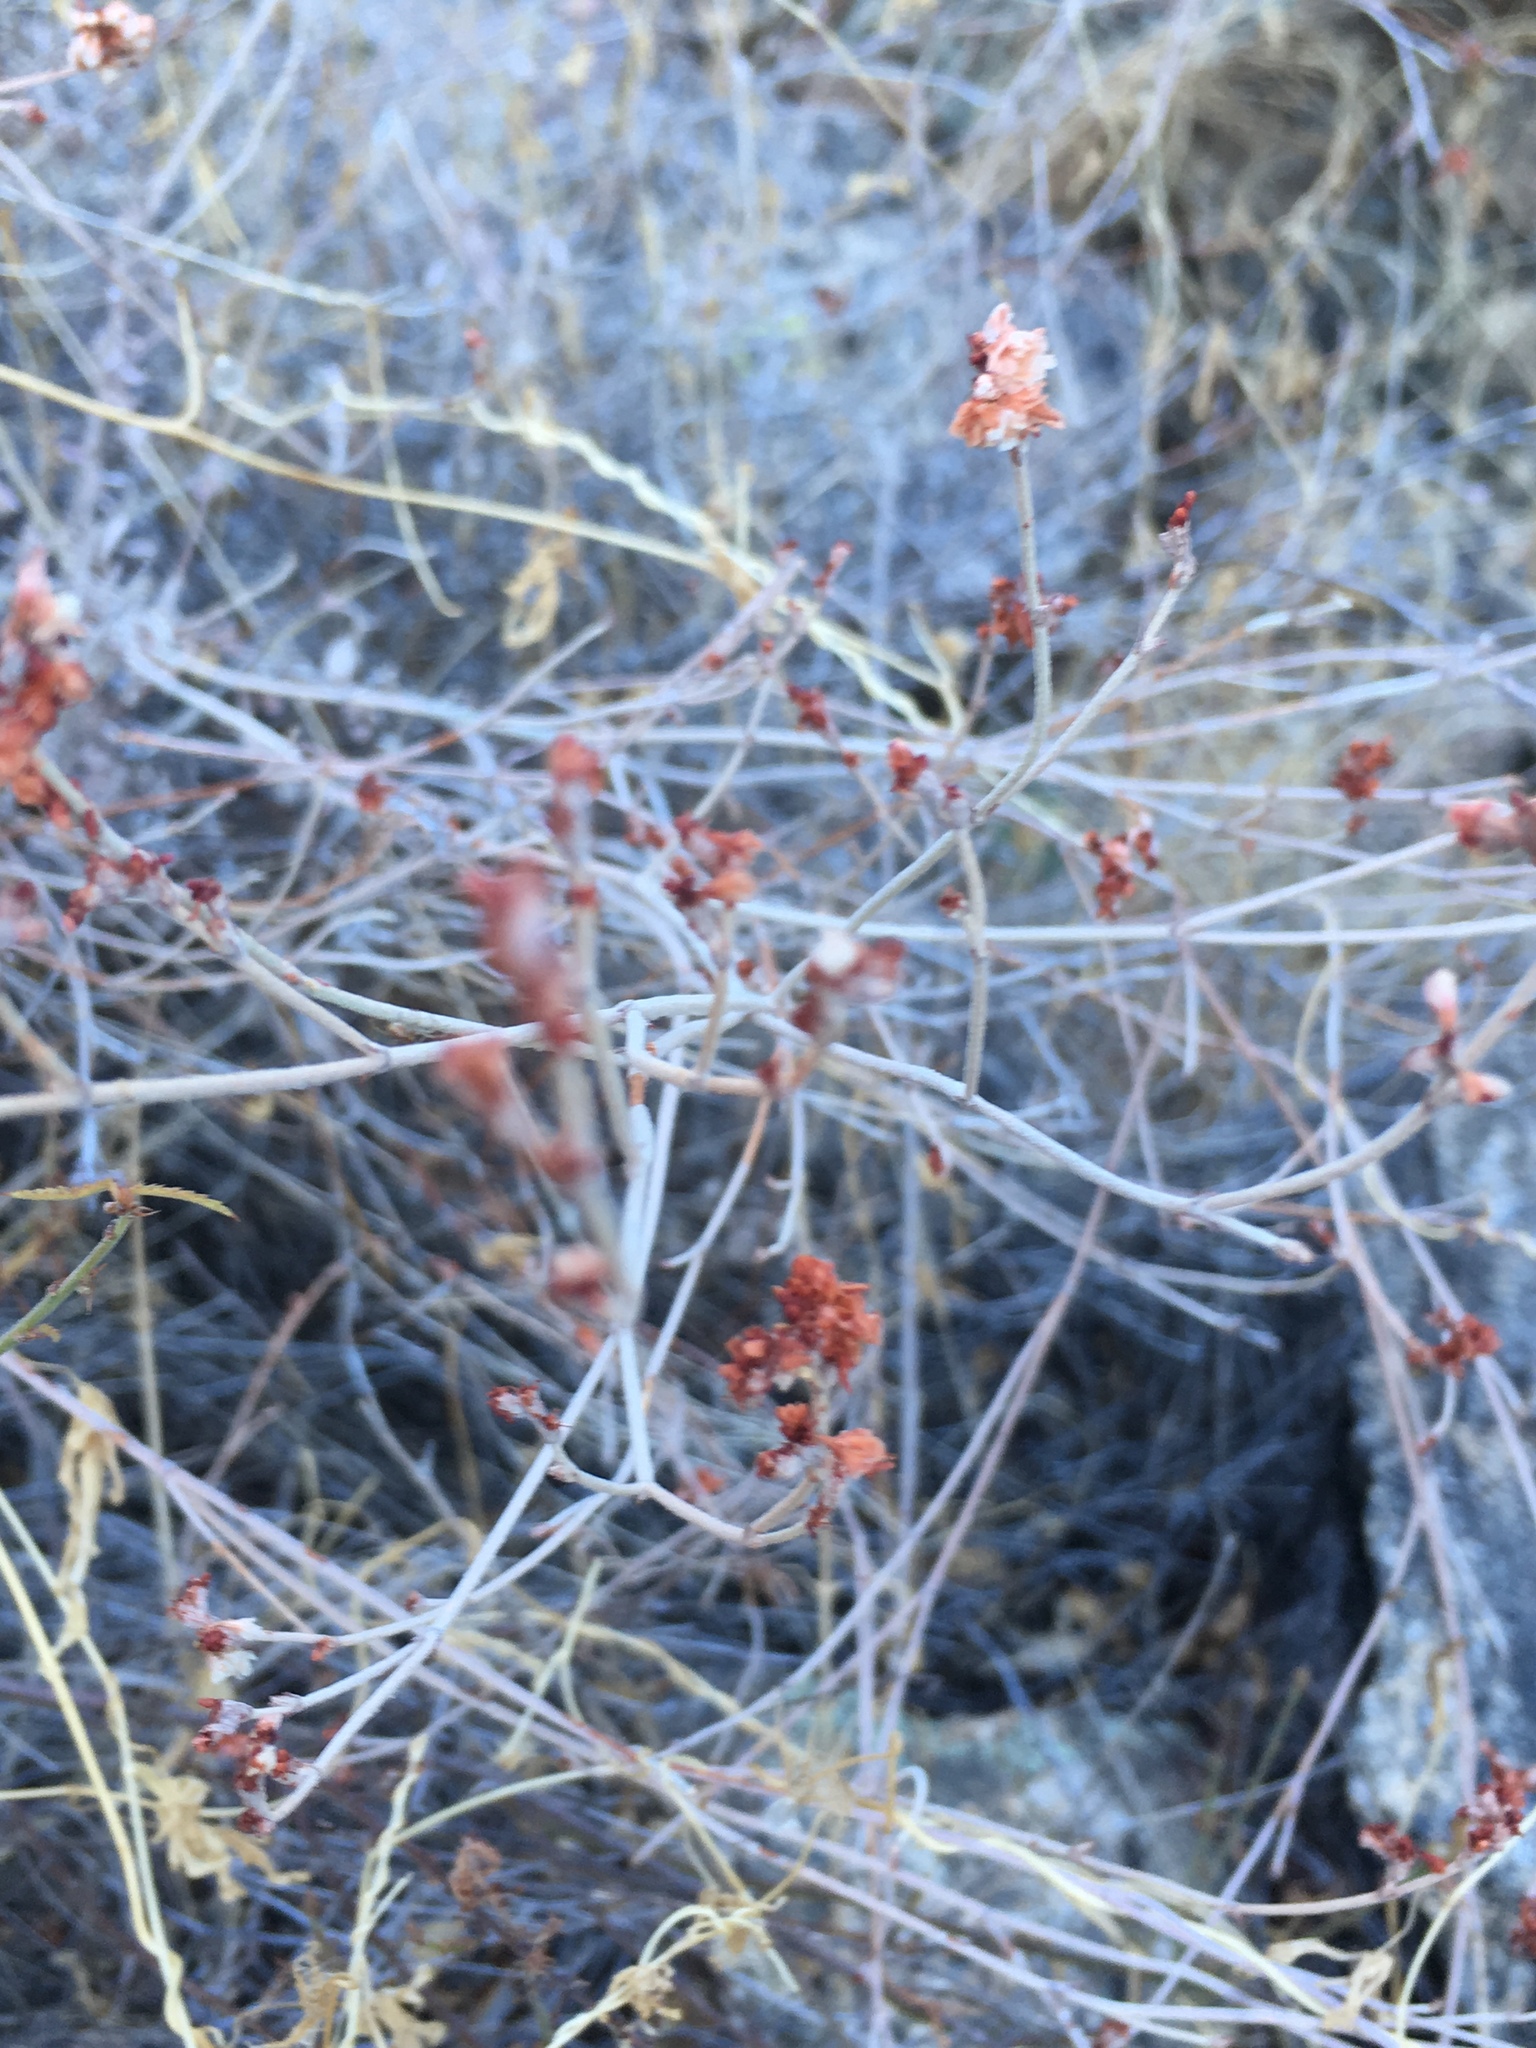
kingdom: Plantae
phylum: Tracheophyta
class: Magnoliopsida
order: Caryophyllales
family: Polygonaceae
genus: Eriogonum
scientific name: Eriogonum wrightii
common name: Bastard-sage
